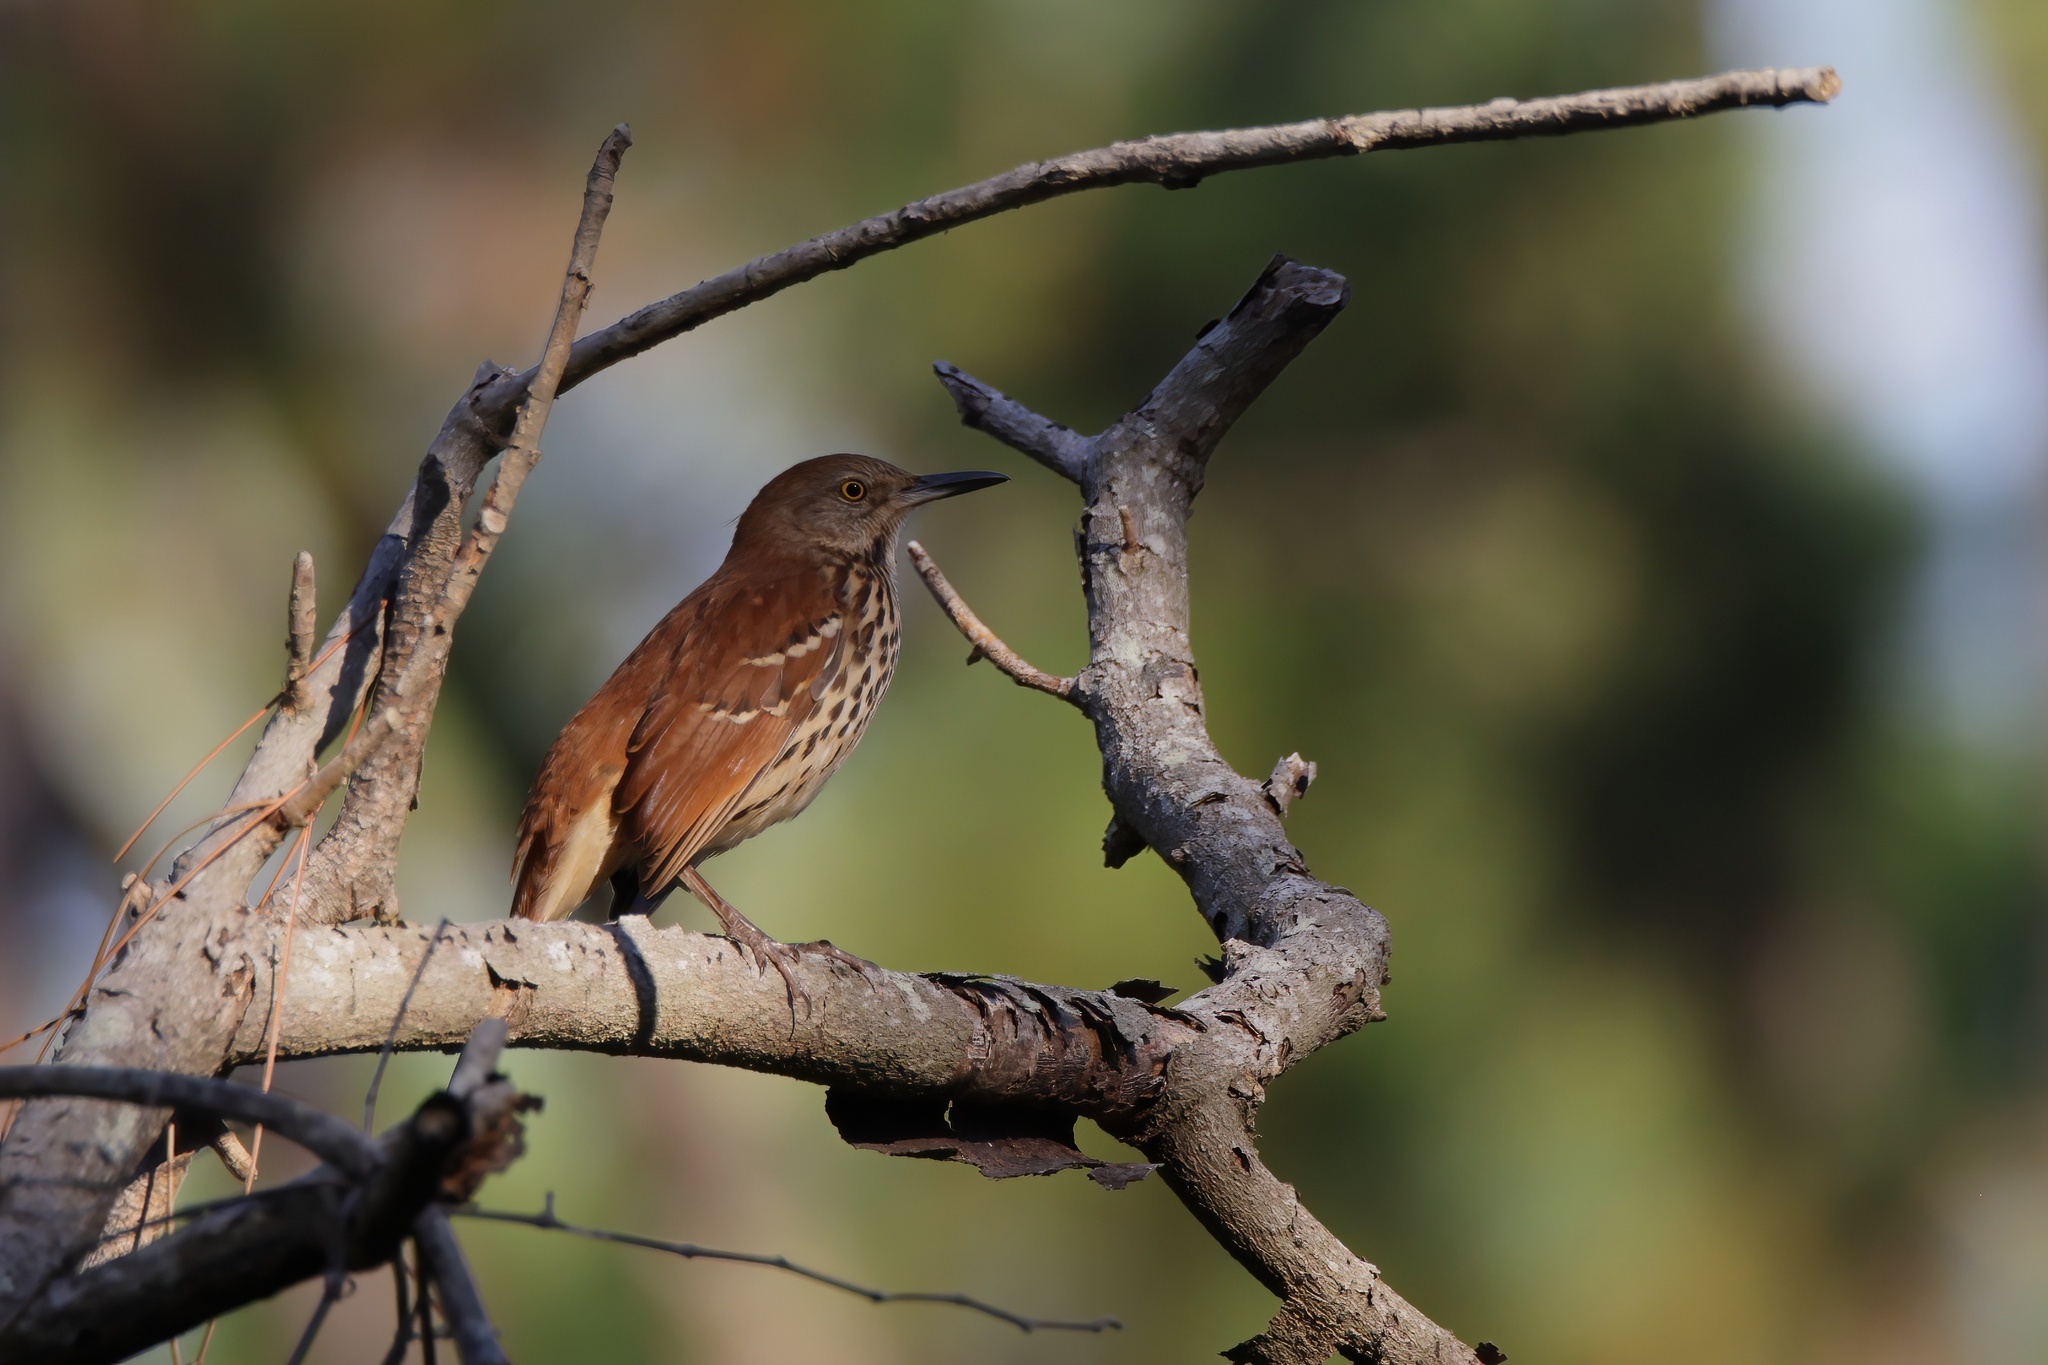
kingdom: Animalia
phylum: Chordata
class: Aves
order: Passeriformes
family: Mimidae
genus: Toxostoma
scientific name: Toxostoma rufum
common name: Brown thrasher
